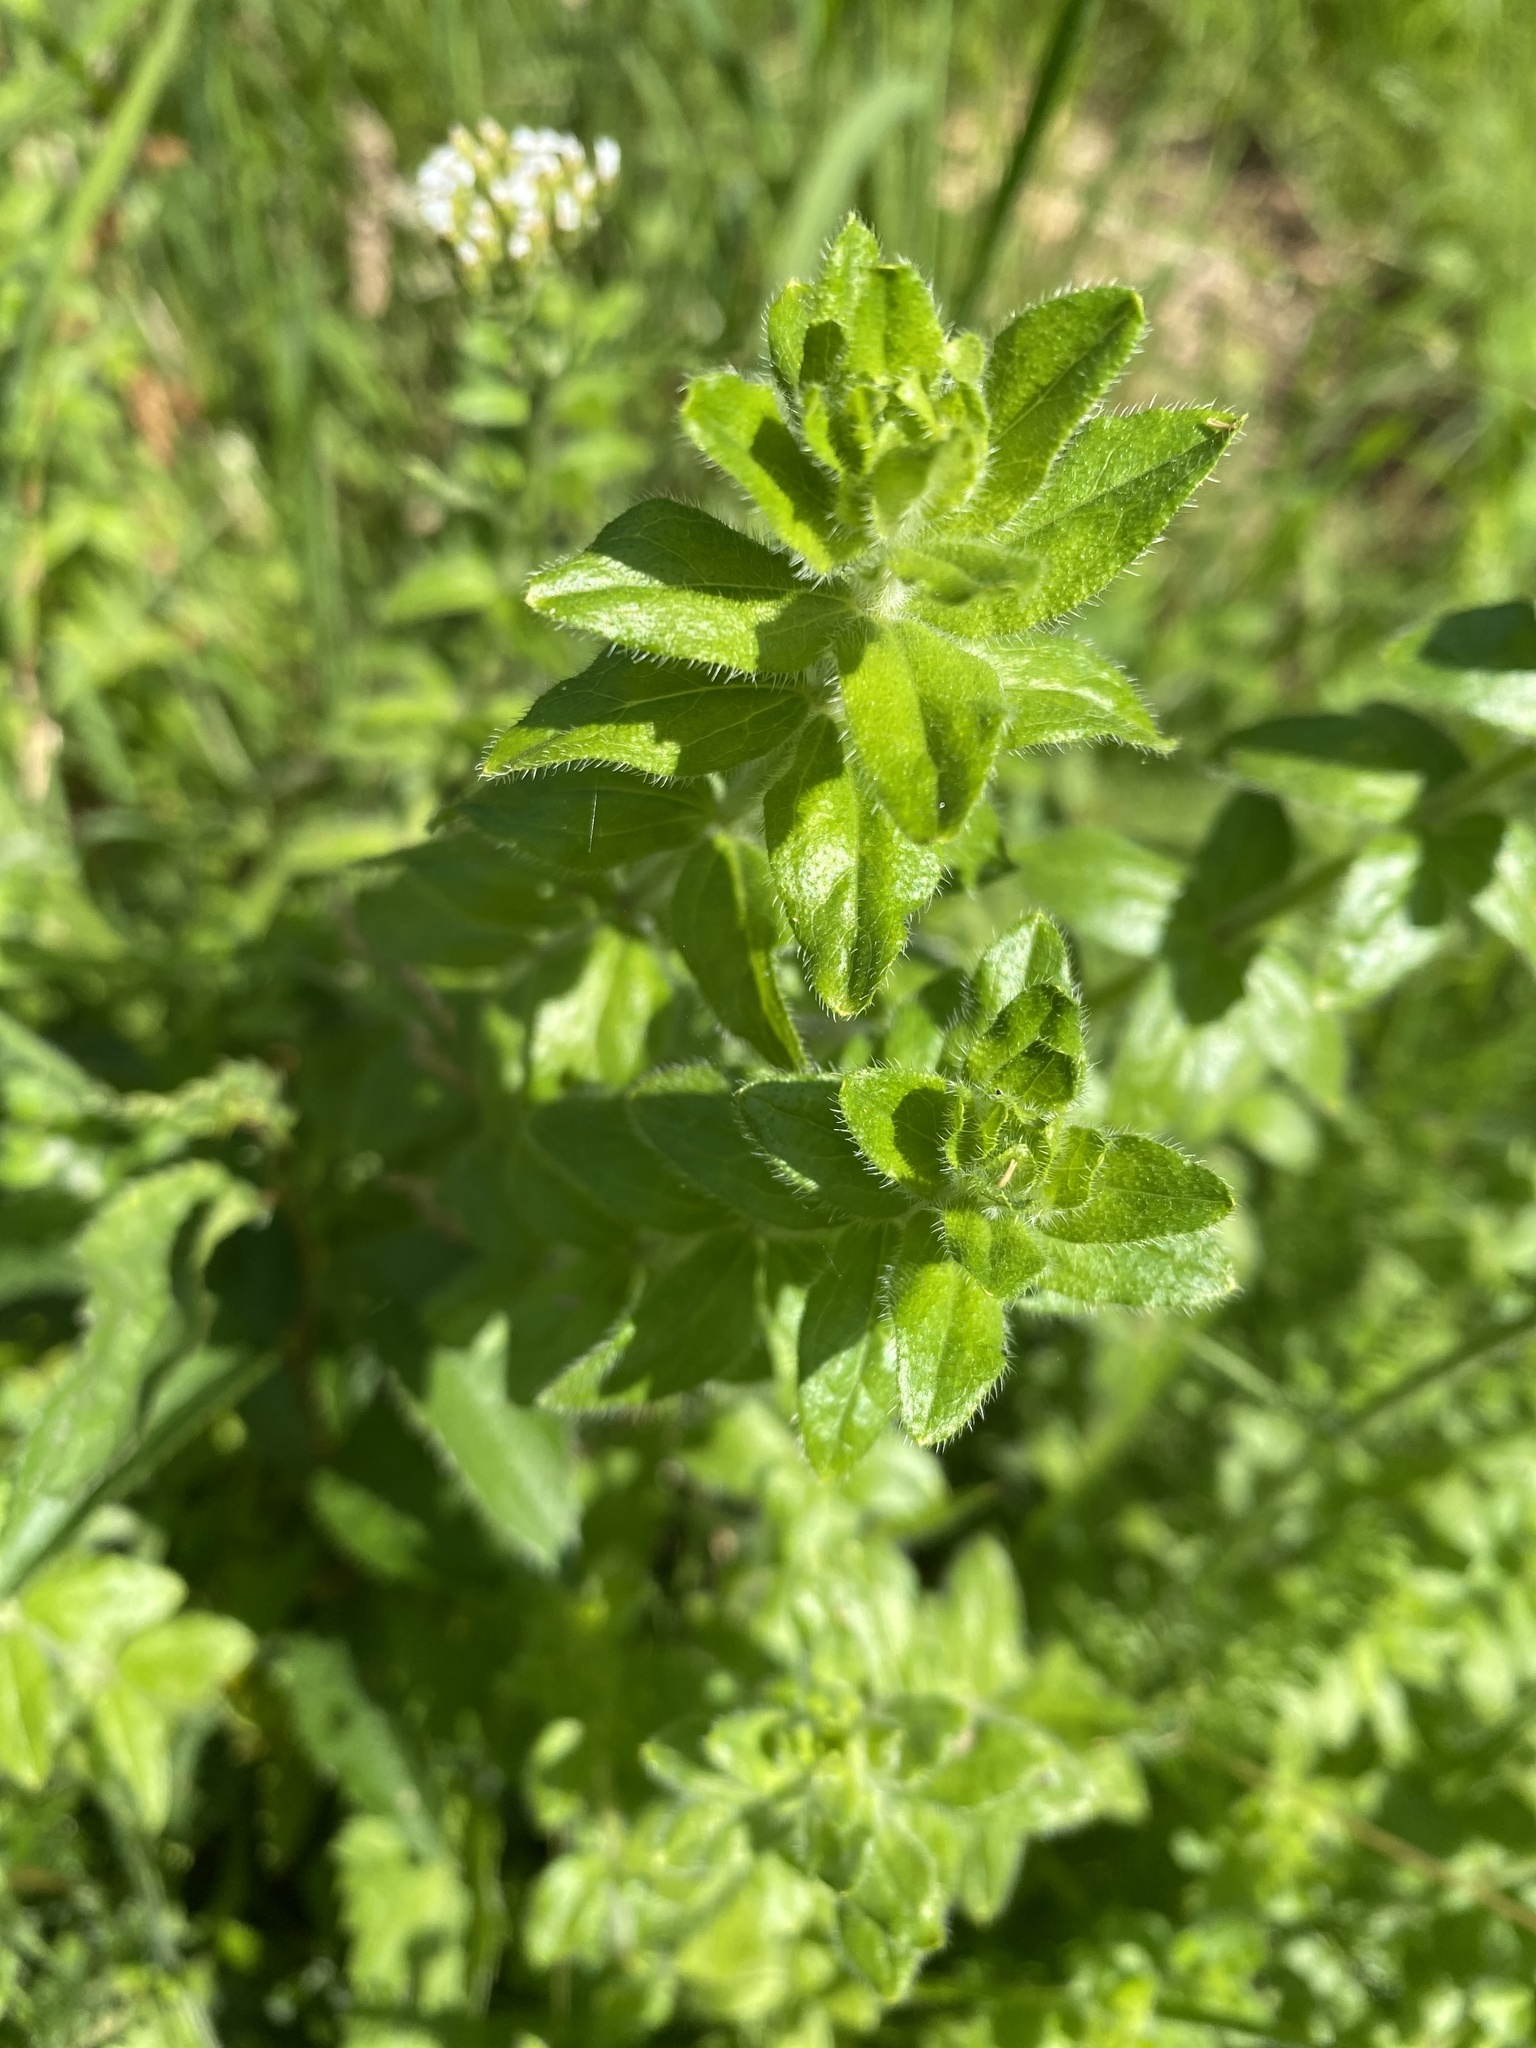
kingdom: Plantae
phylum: Tracheophyta
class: Magnoliopsida
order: Gentianales
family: Rubiaceae
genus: Cruciata
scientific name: Cruciata laevipes
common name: Crosswort
